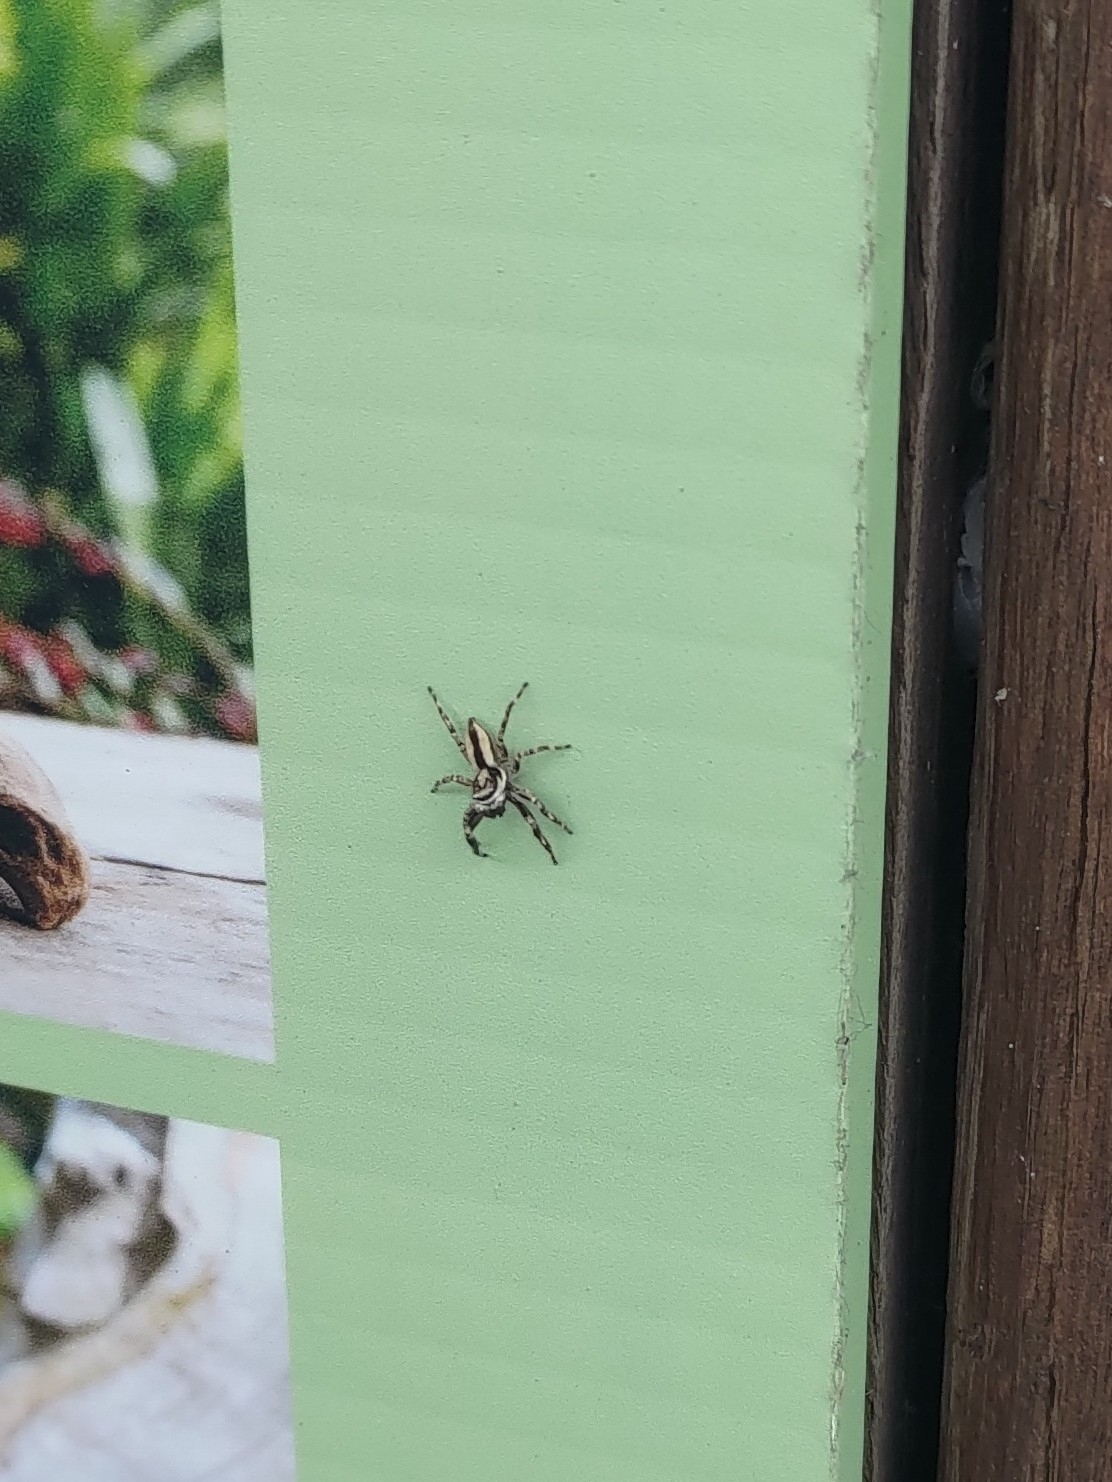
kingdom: Animalia
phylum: Arthropoda
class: Arachnida
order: Araneae
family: Salticidae
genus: Menemerus
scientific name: Menemerus bivittatus
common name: Gray wall jumper
